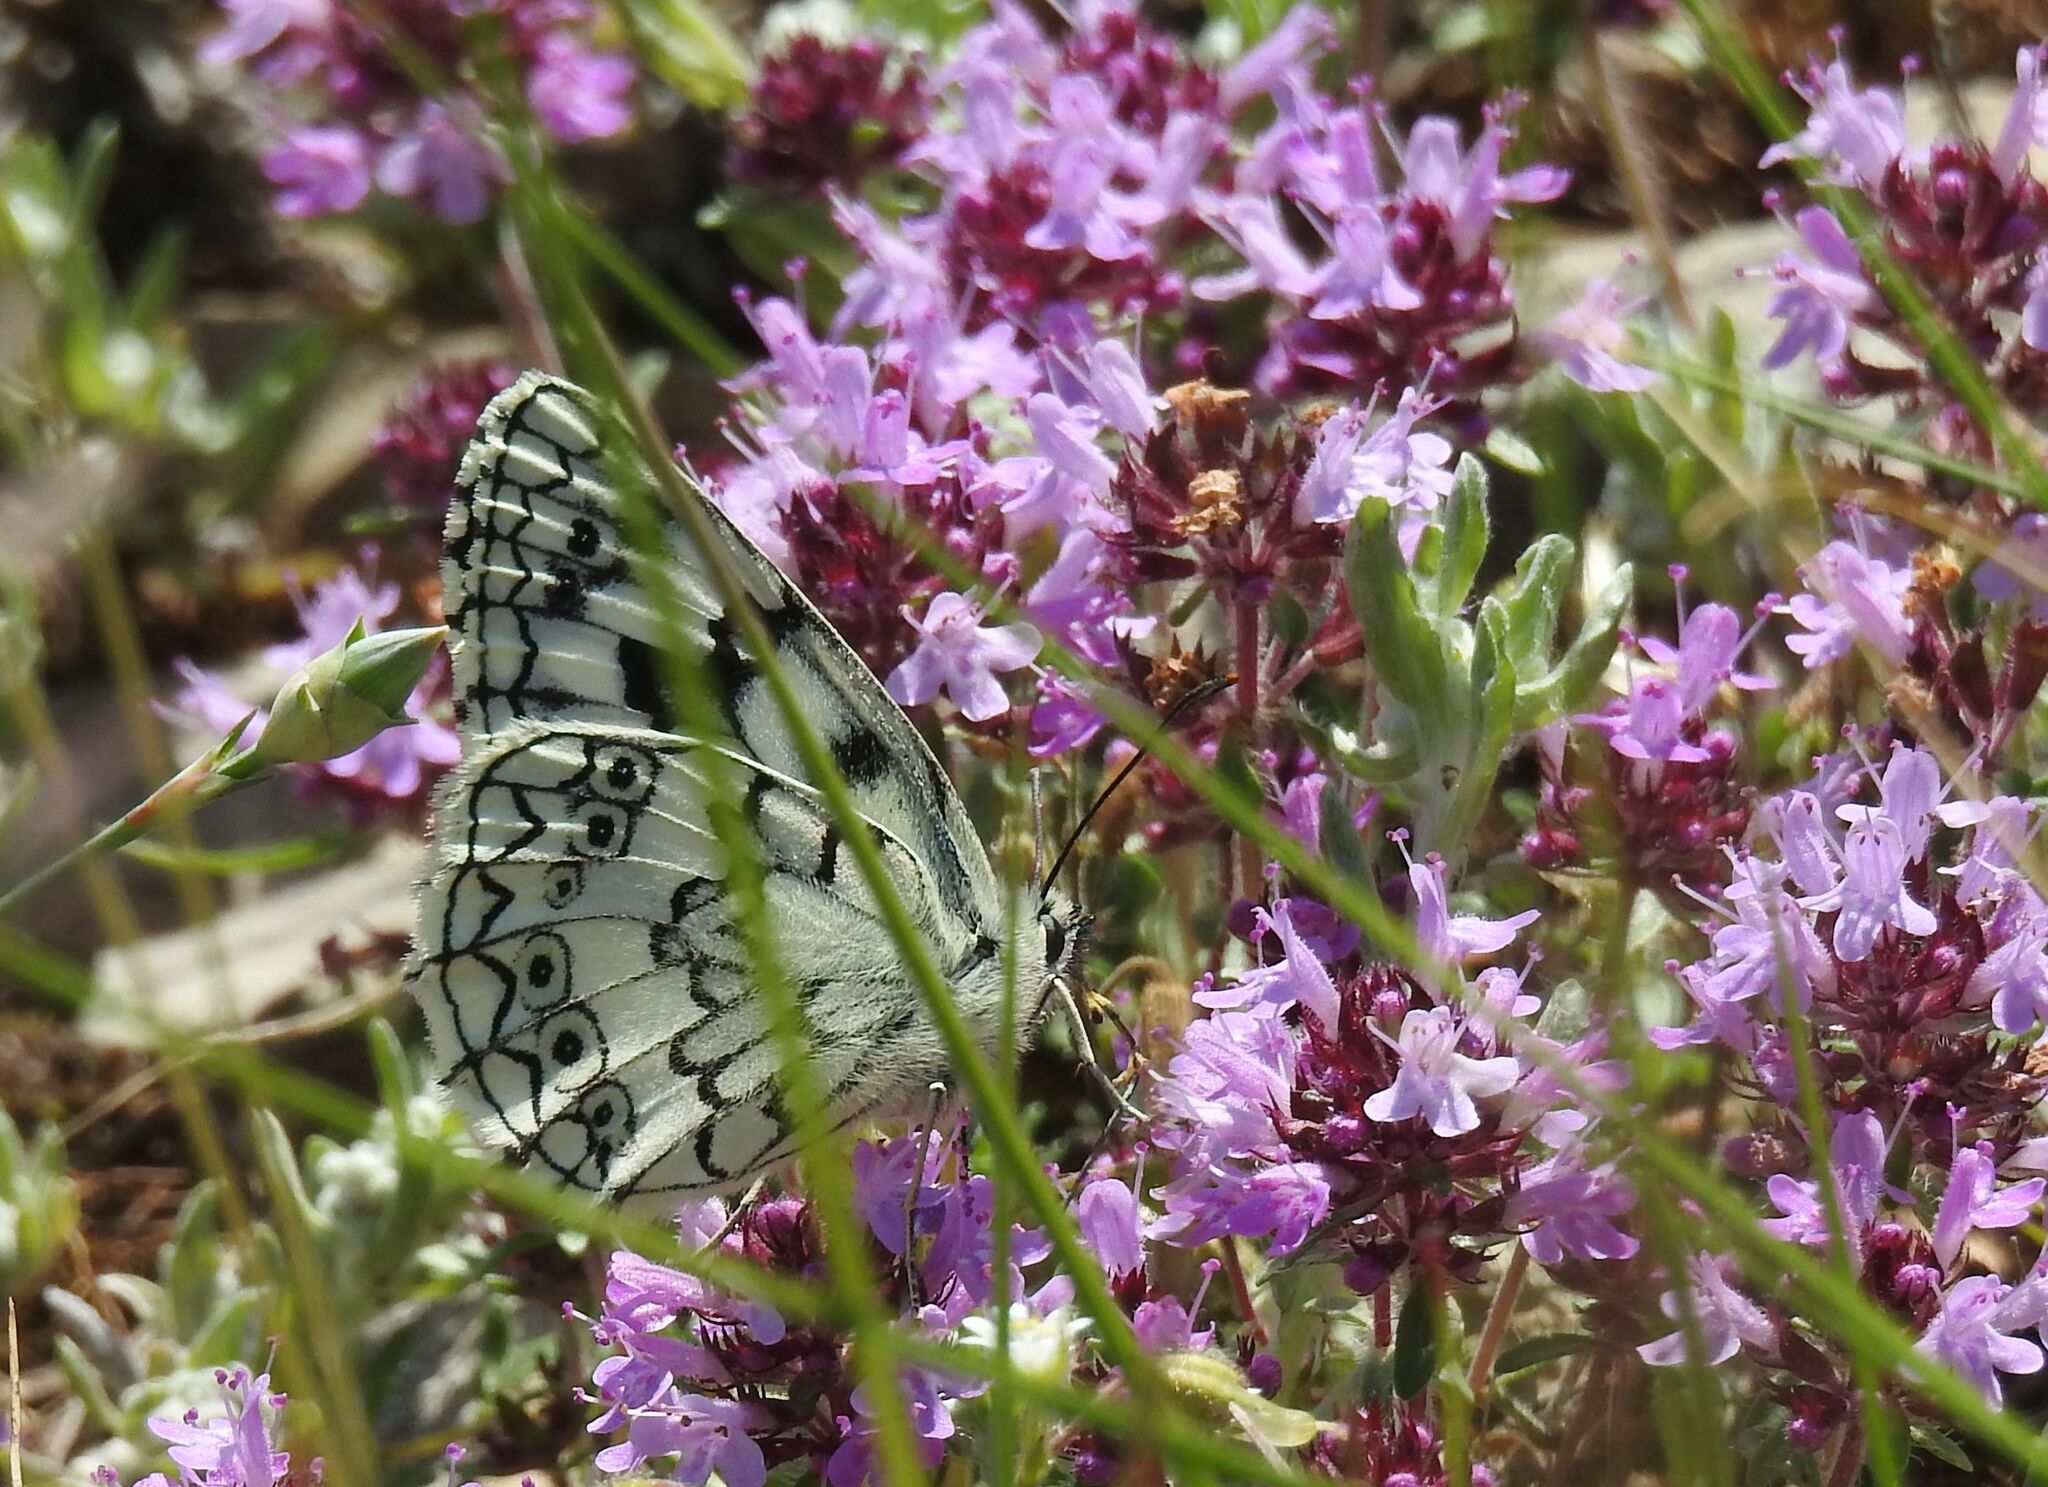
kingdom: Animalia
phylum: Arthropoda
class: Insecta
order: Lepidoptera
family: Nymphalidae
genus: Melanargia
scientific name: Melanargia japygia
